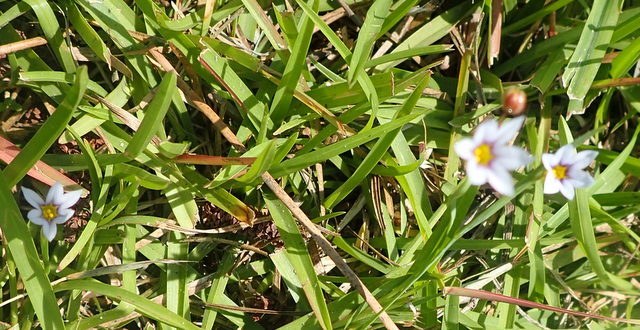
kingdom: Plantae
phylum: Tracheophyta
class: Liliopsida
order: Asparagales
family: Iridaceae
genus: Sisyrinchium
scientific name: Sisyrinchium micranthum
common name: Bermuda pigroot
